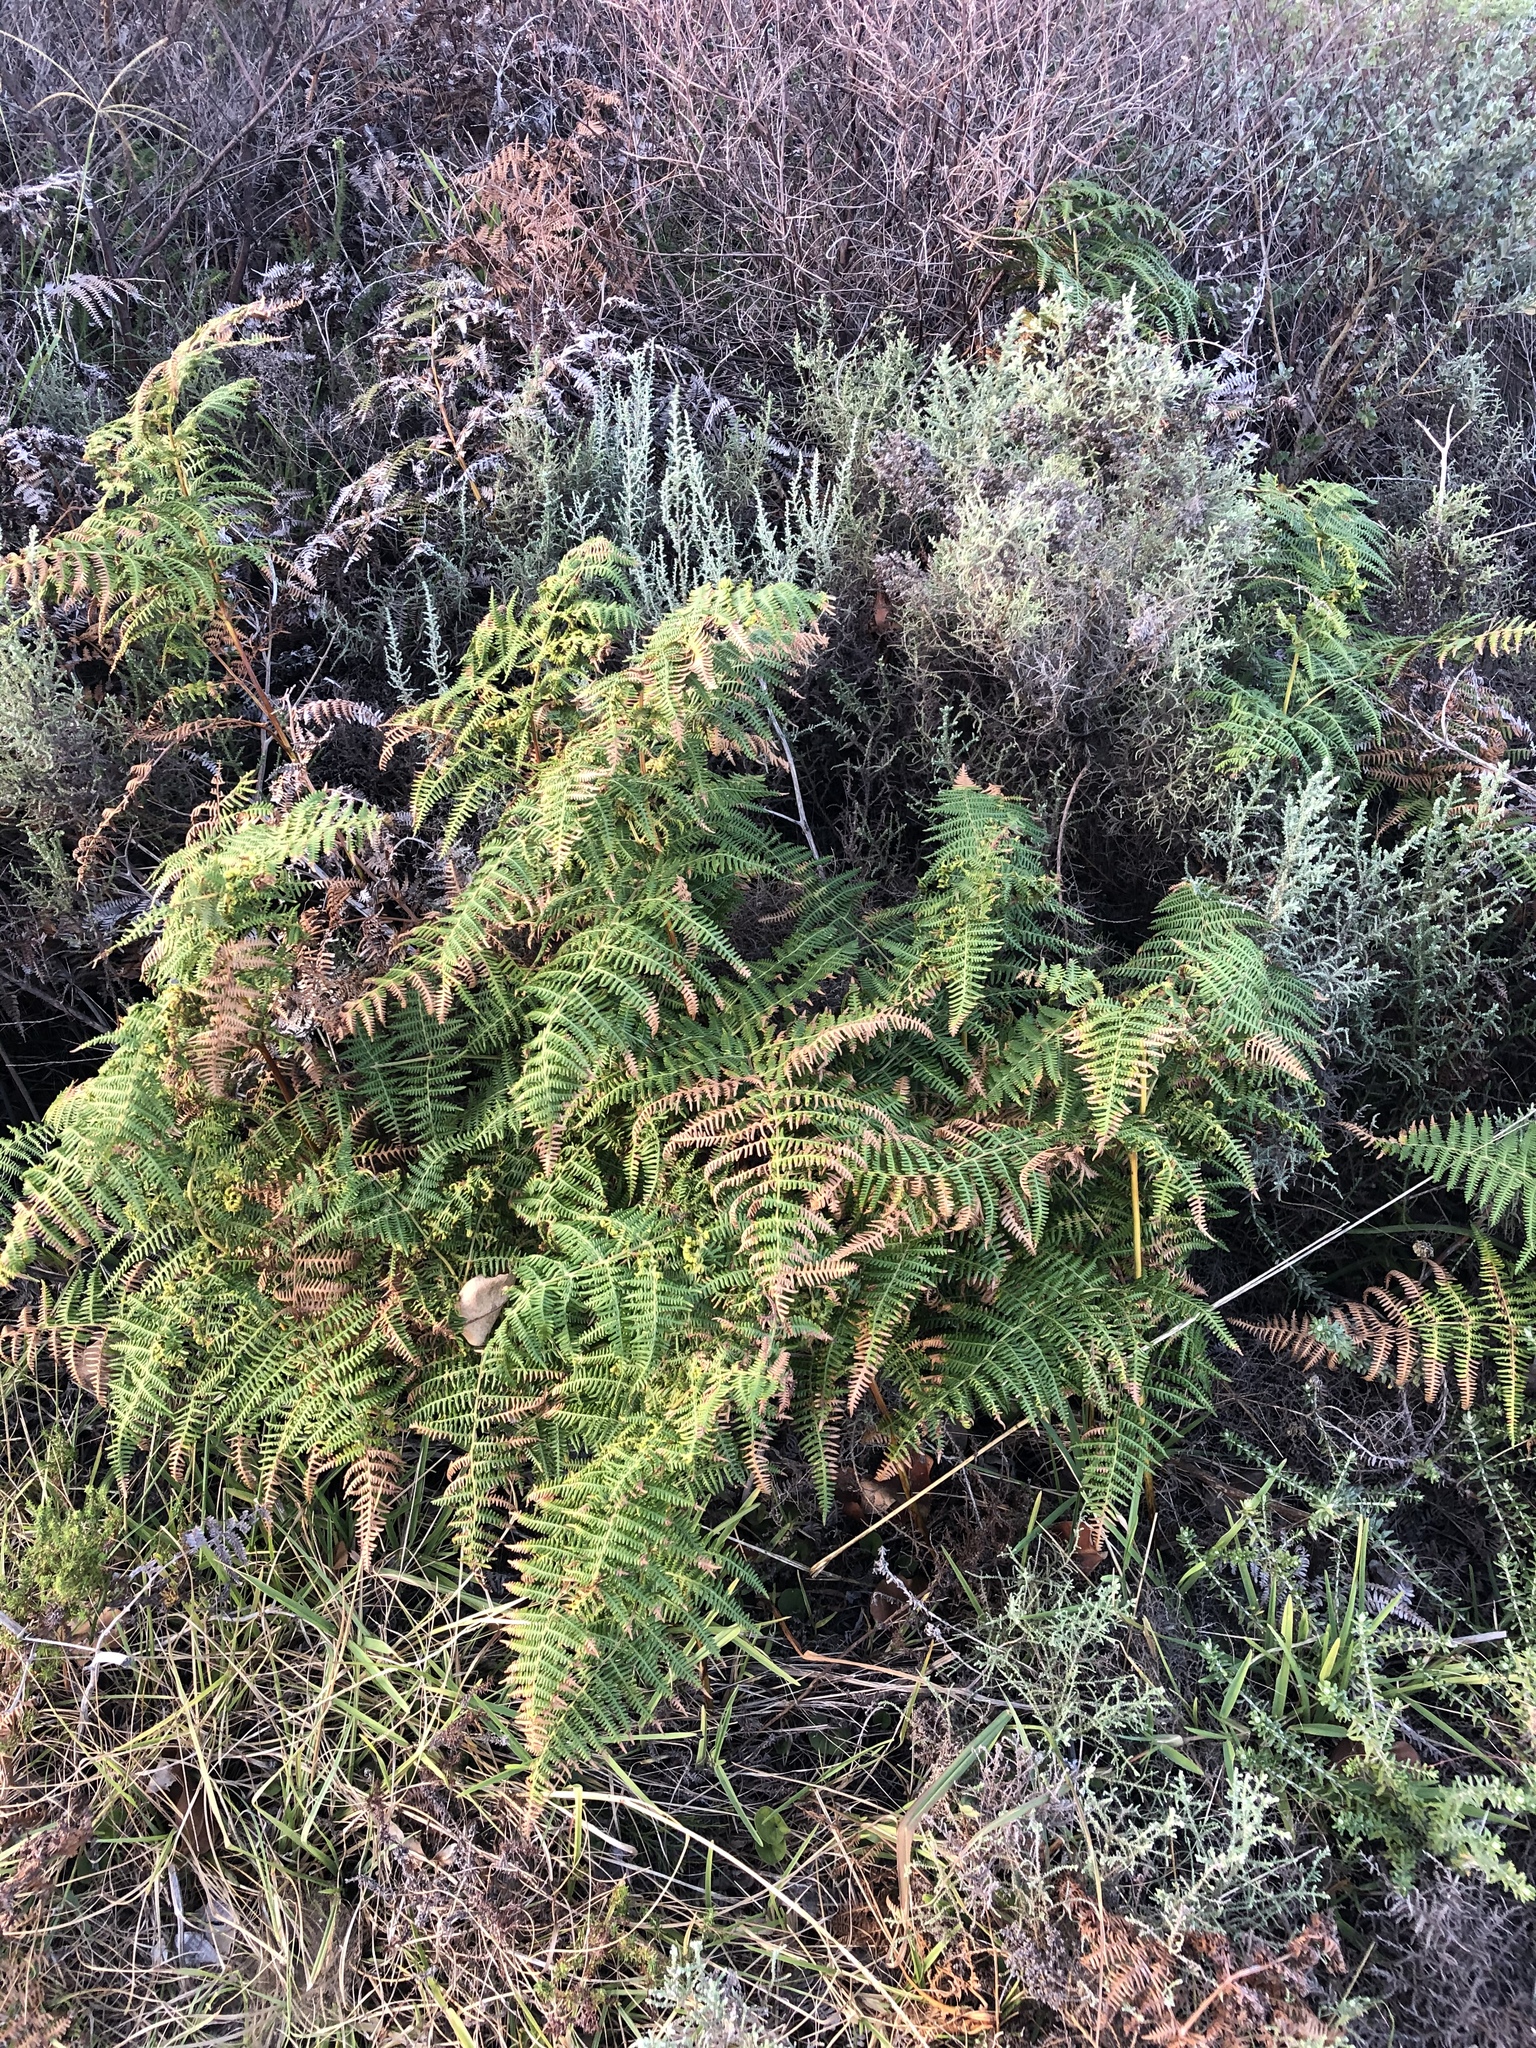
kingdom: Plantae
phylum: Tracheophyta
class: Polypodiopsida
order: Polypodiales
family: Dennstaedtiaceae
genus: Pteridium
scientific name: Pteridium aquilinum
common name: Bracken
